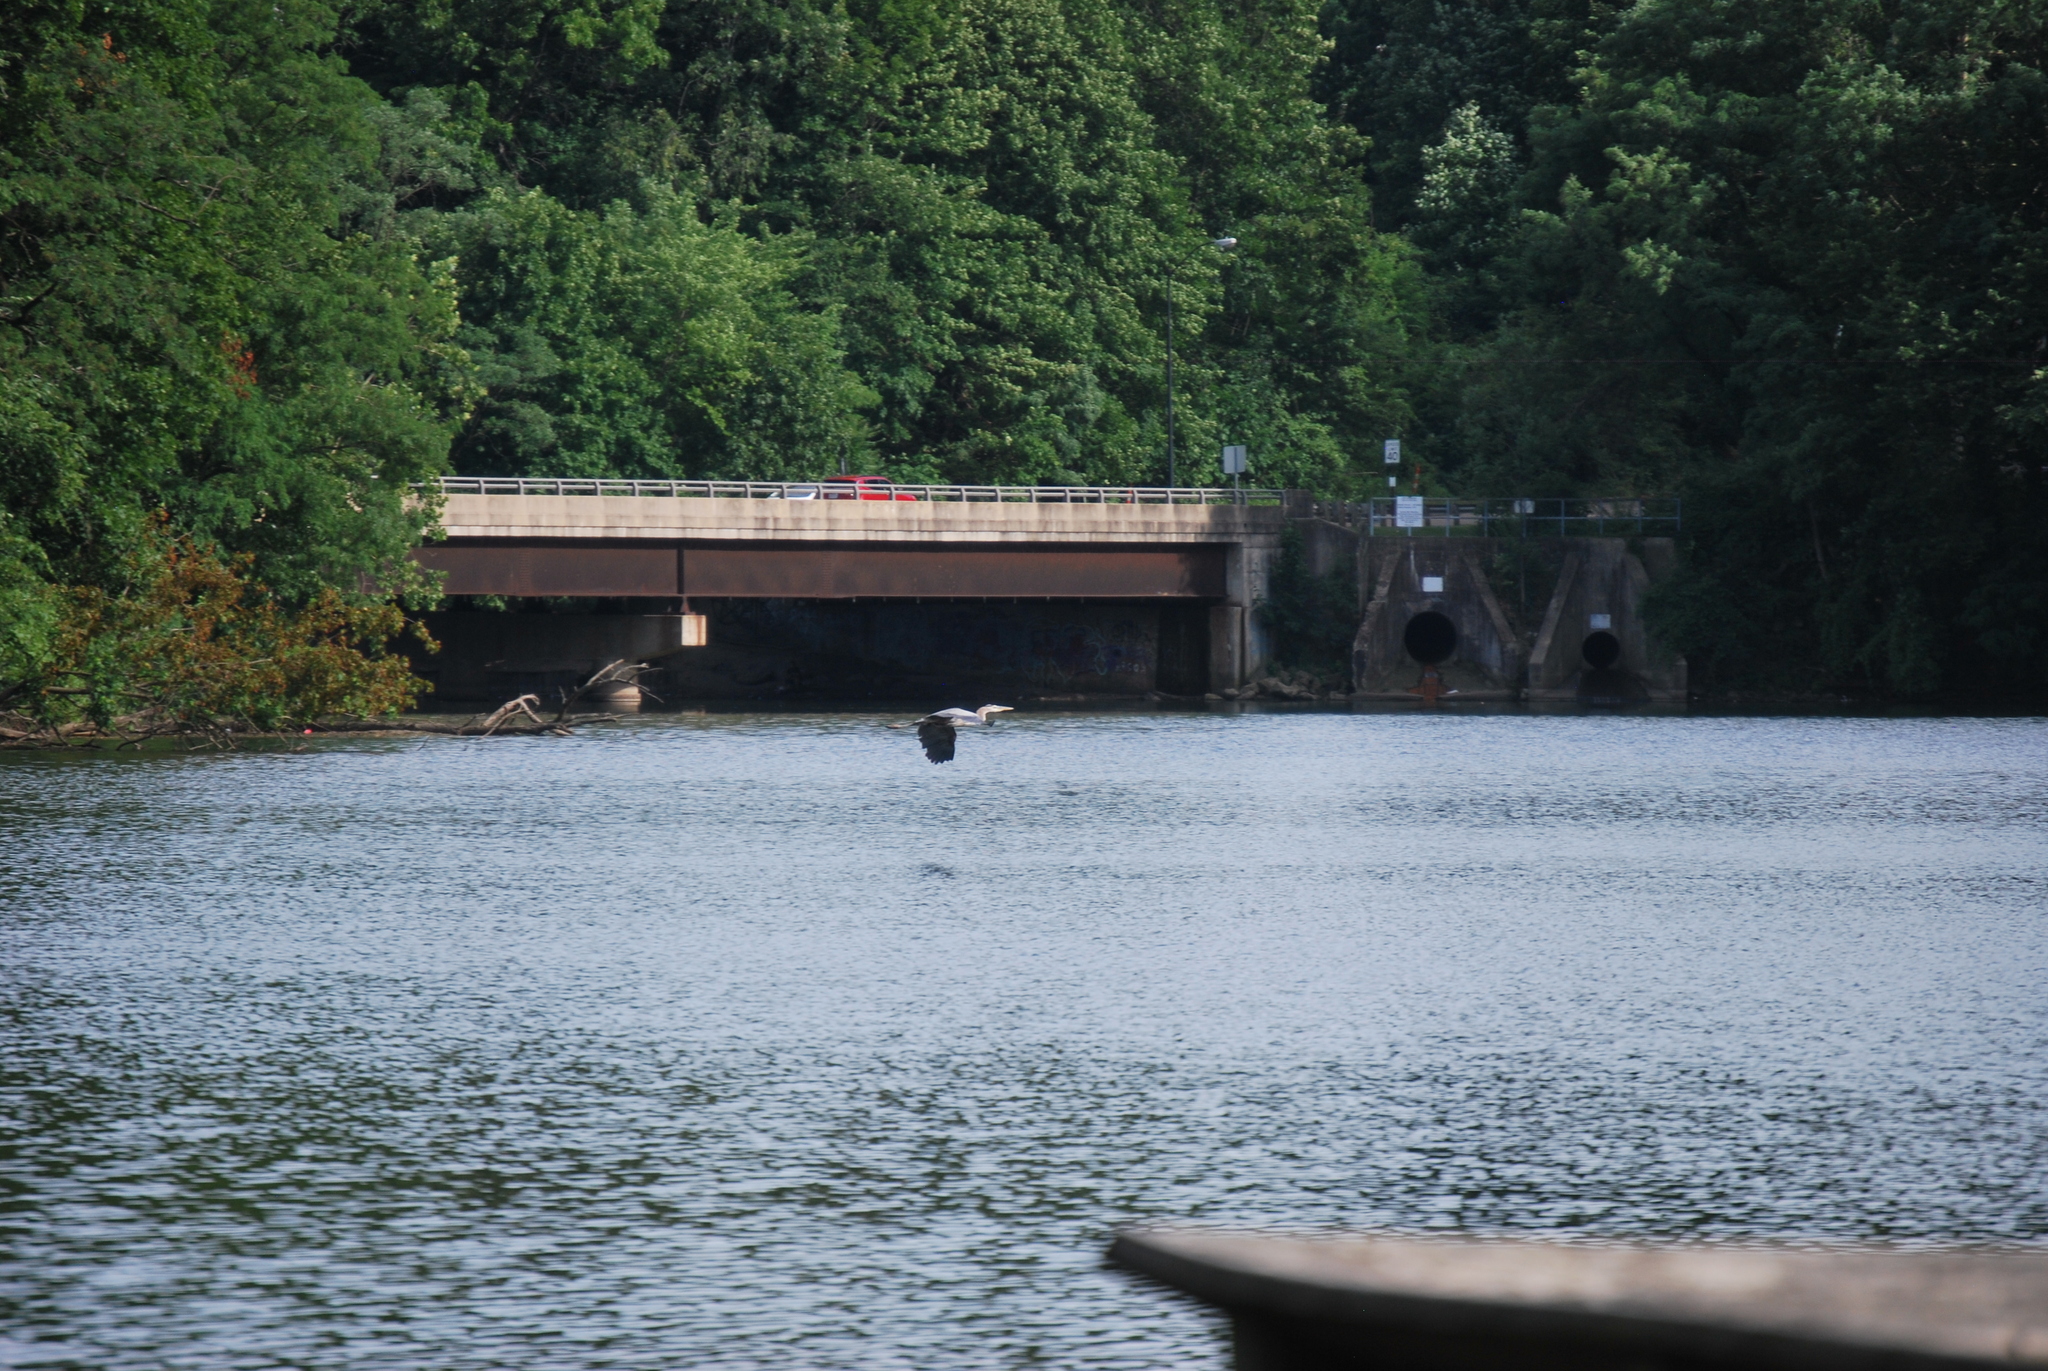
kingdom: Animalia
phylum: Chordata
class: Aves
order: Pelecaniformes
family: Ardeidae
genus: Ardea
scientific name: Ardea herodias
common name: Great blue heron
